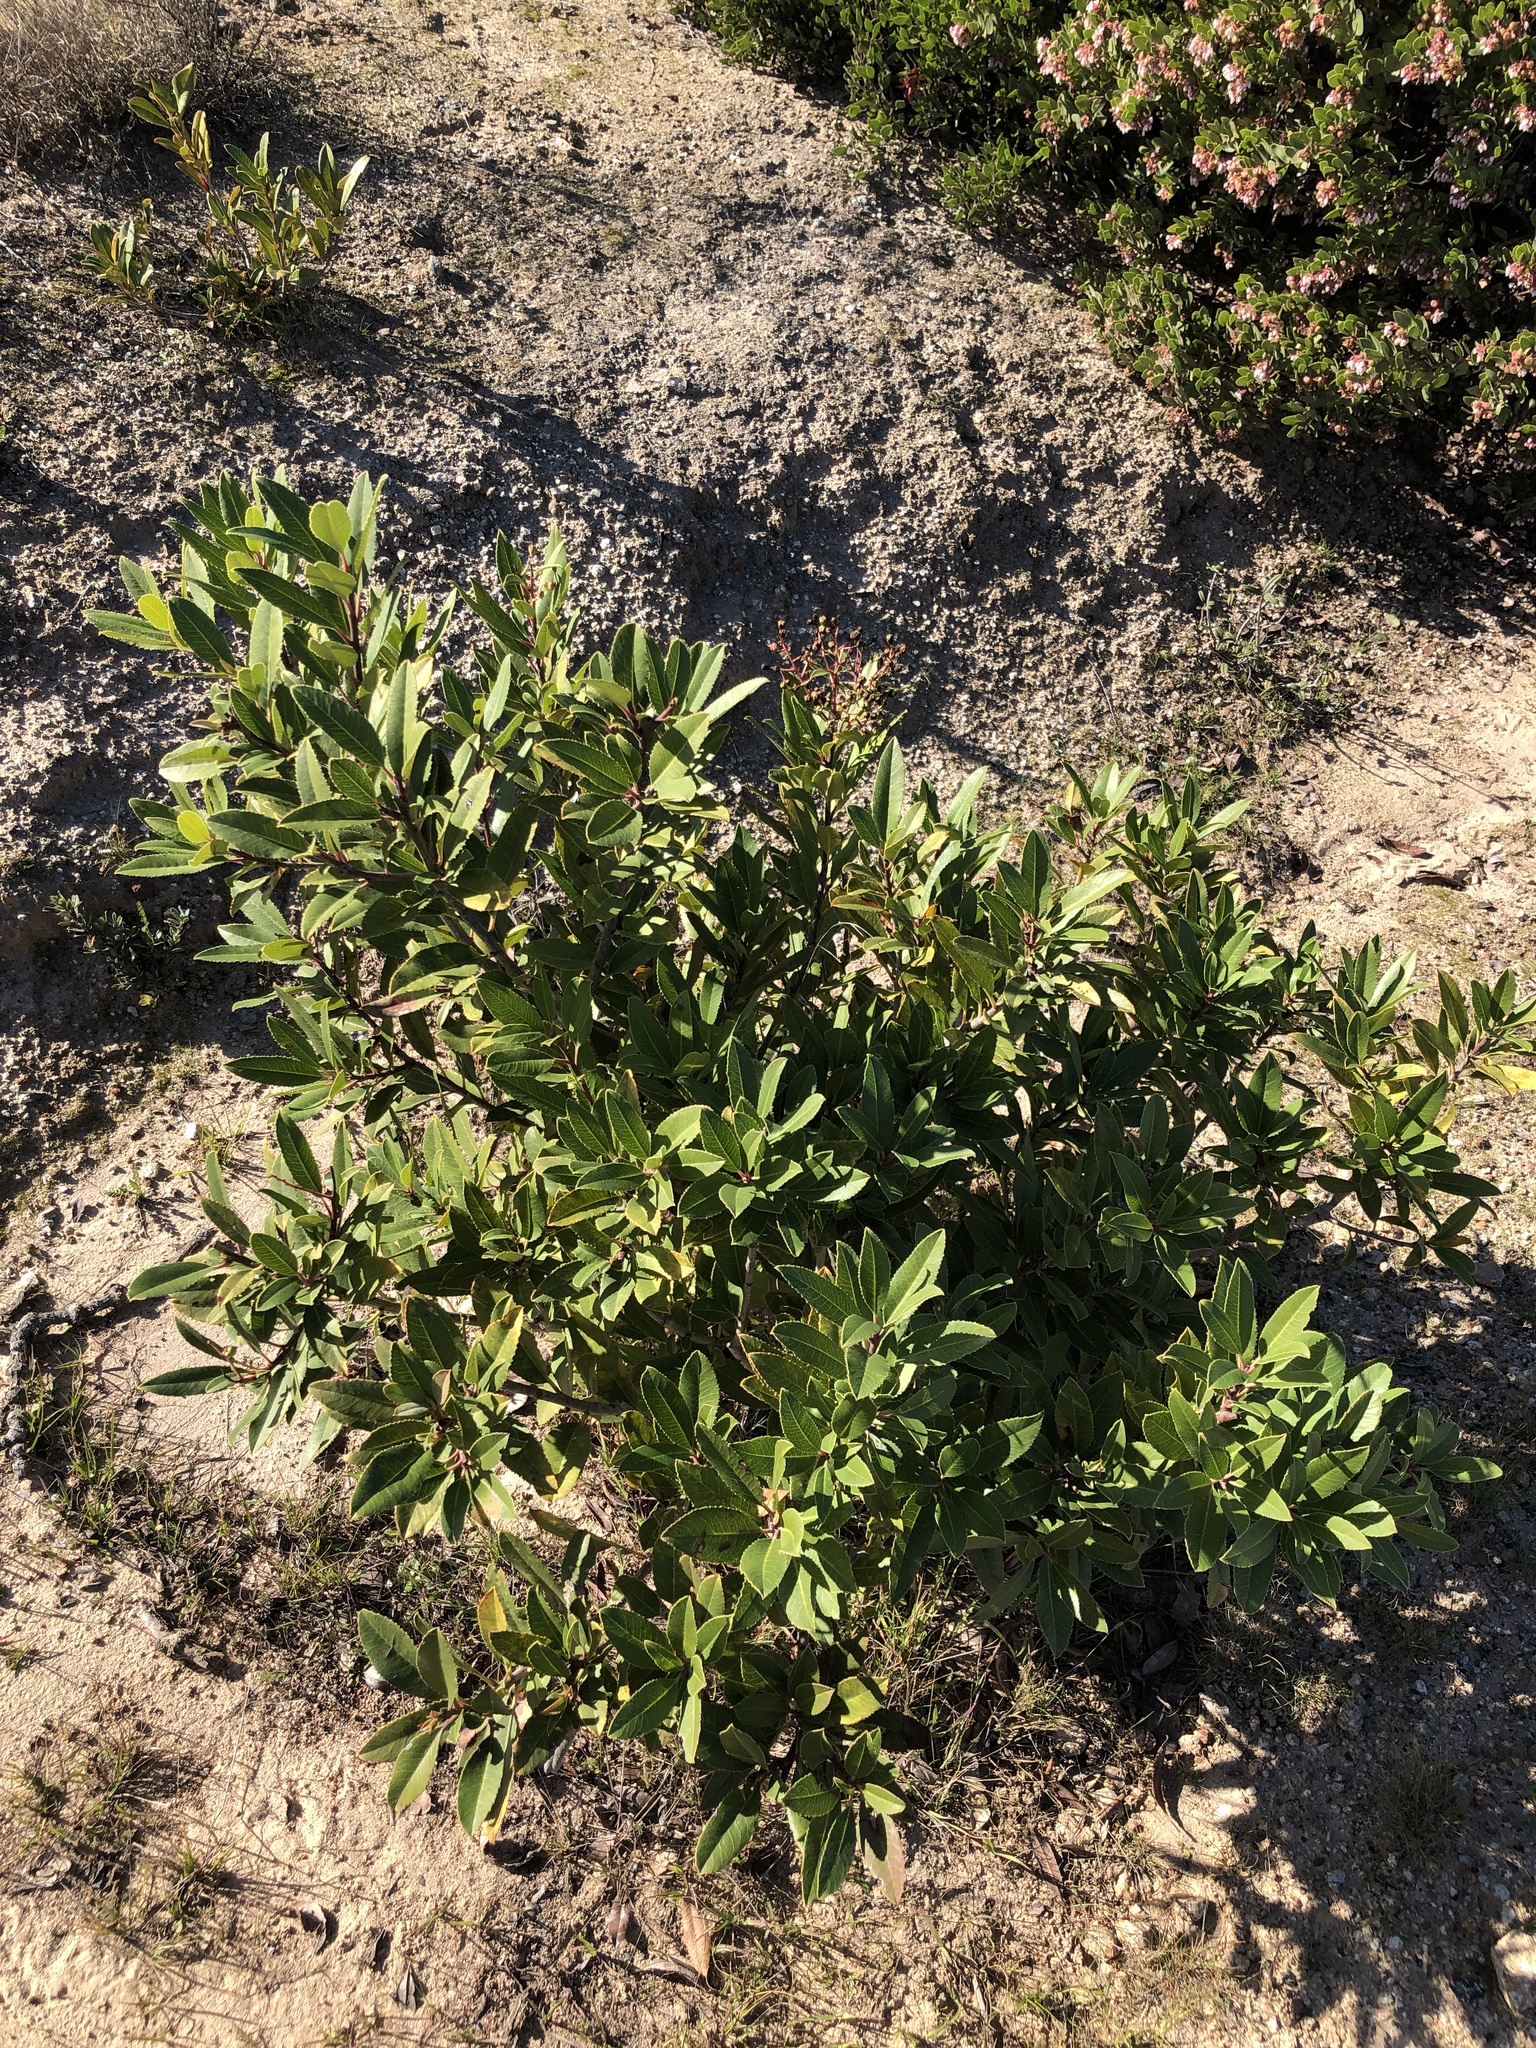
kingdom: Plantae
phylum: Tracheophyta
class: Magnoliopsida
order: Rosales
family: Rosaceae
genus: Heteromeles
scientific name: Heteromeles arbutifolia
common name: California-holly
